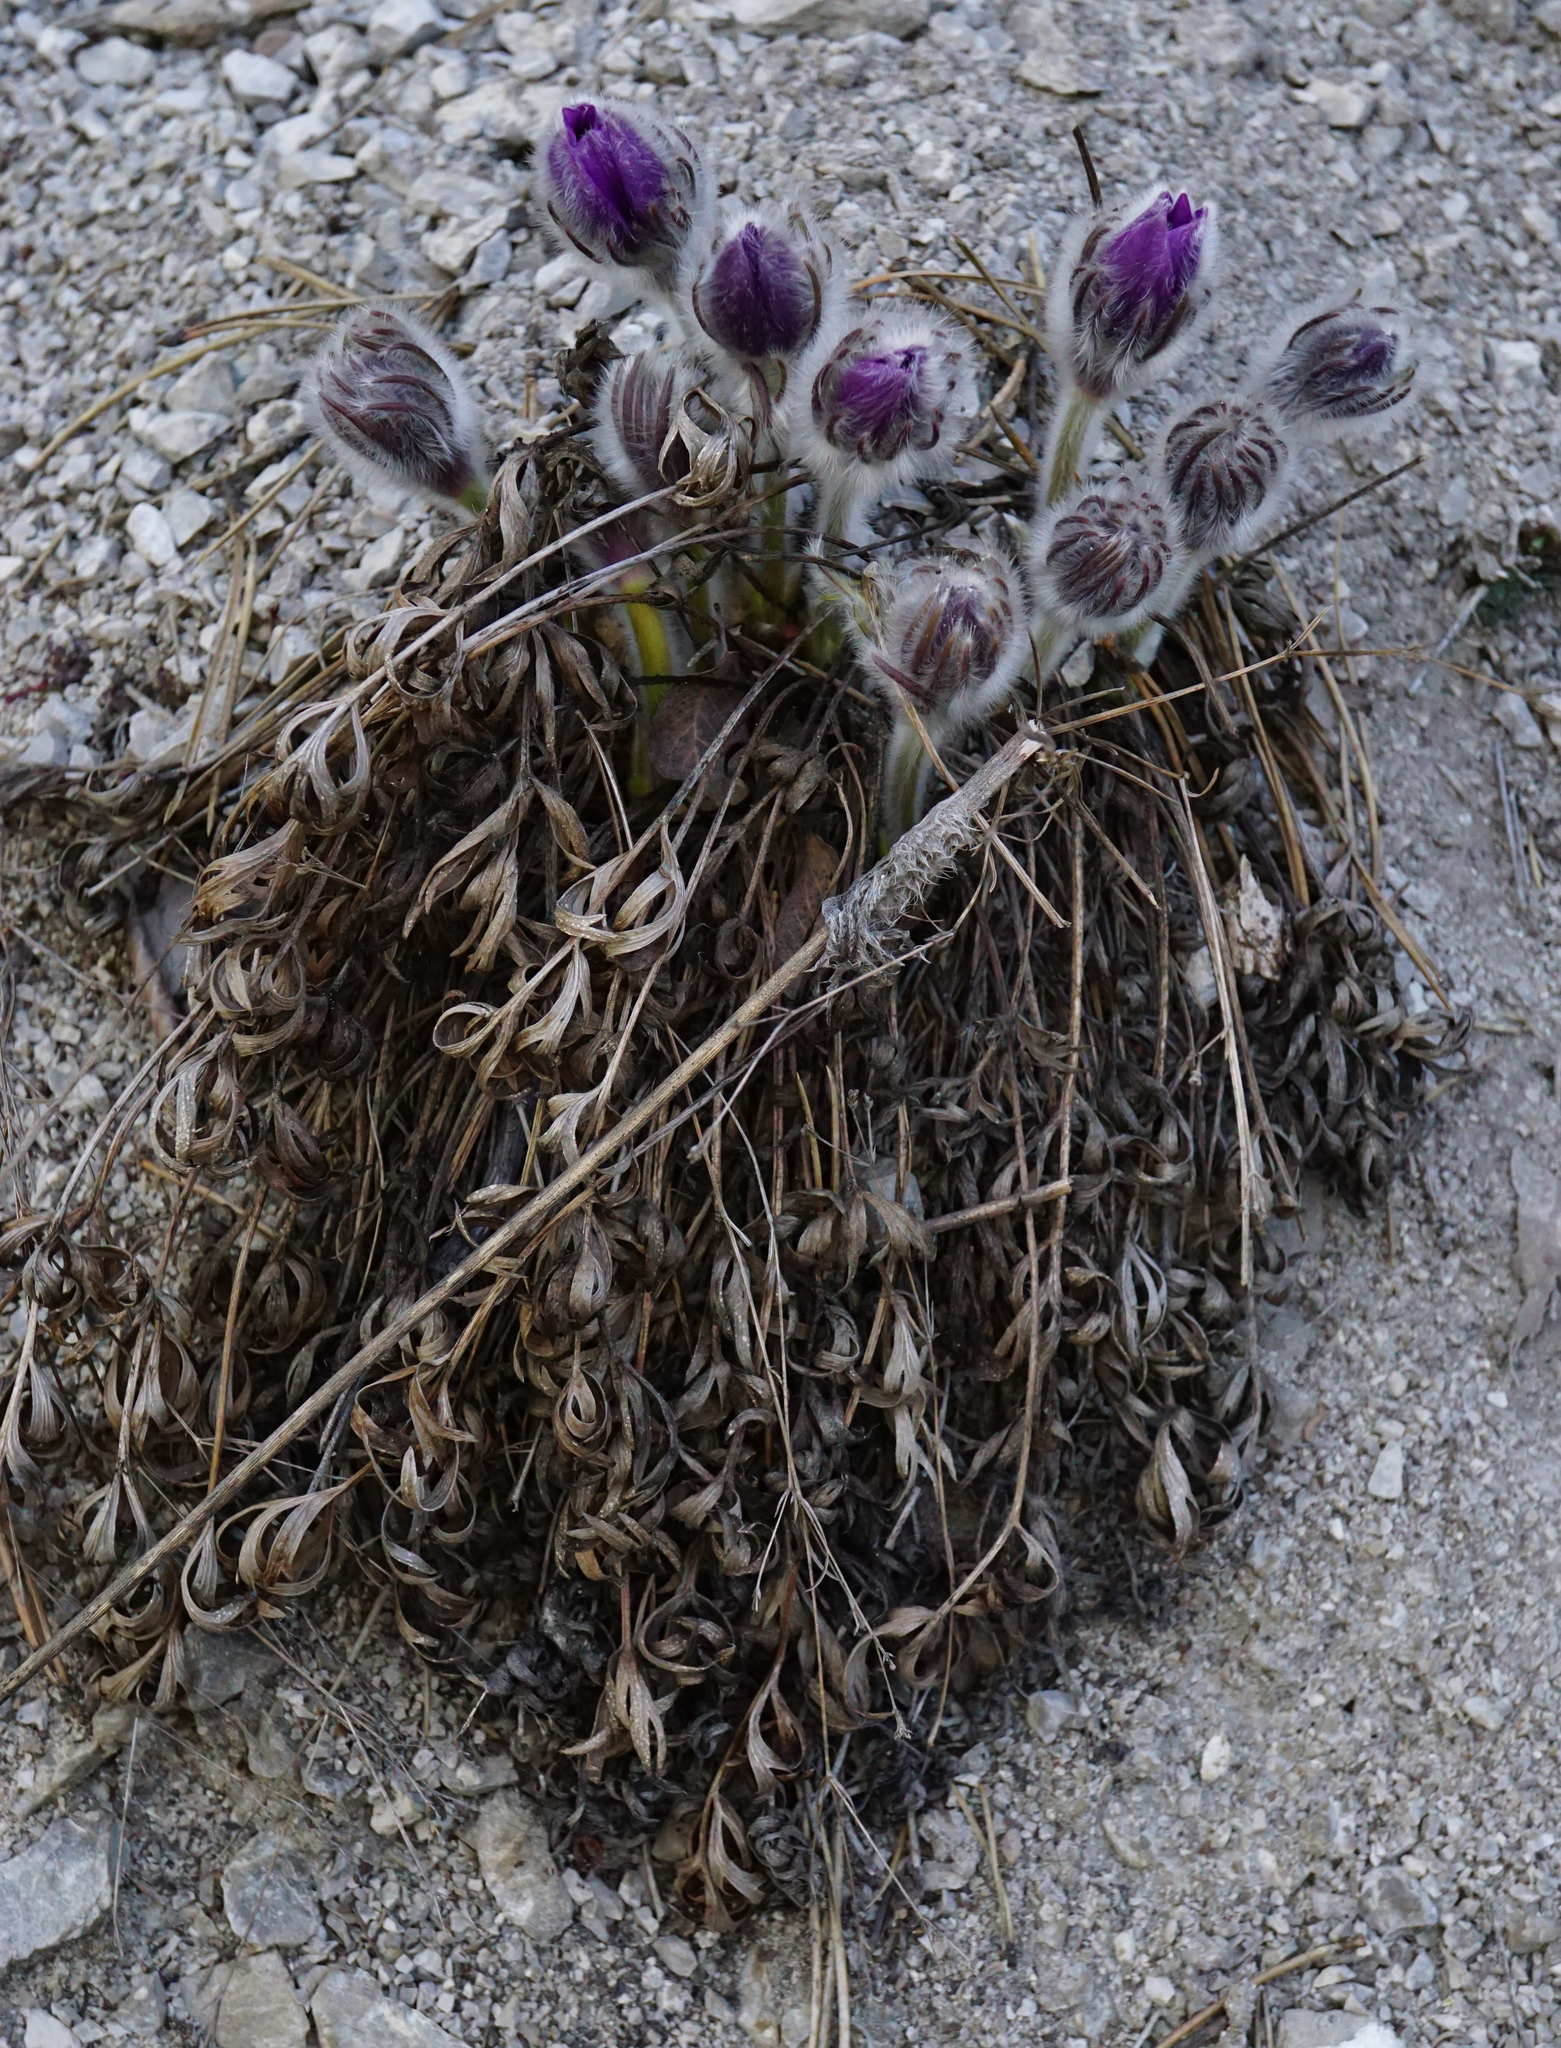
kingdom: Plantae
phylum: Tracheophyta
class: Magnoliopsida
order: Ranunculales
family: Ranunculaceae
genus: Pulsatilla
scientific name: Pulsatilla grandis
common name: Greater pasque flower
